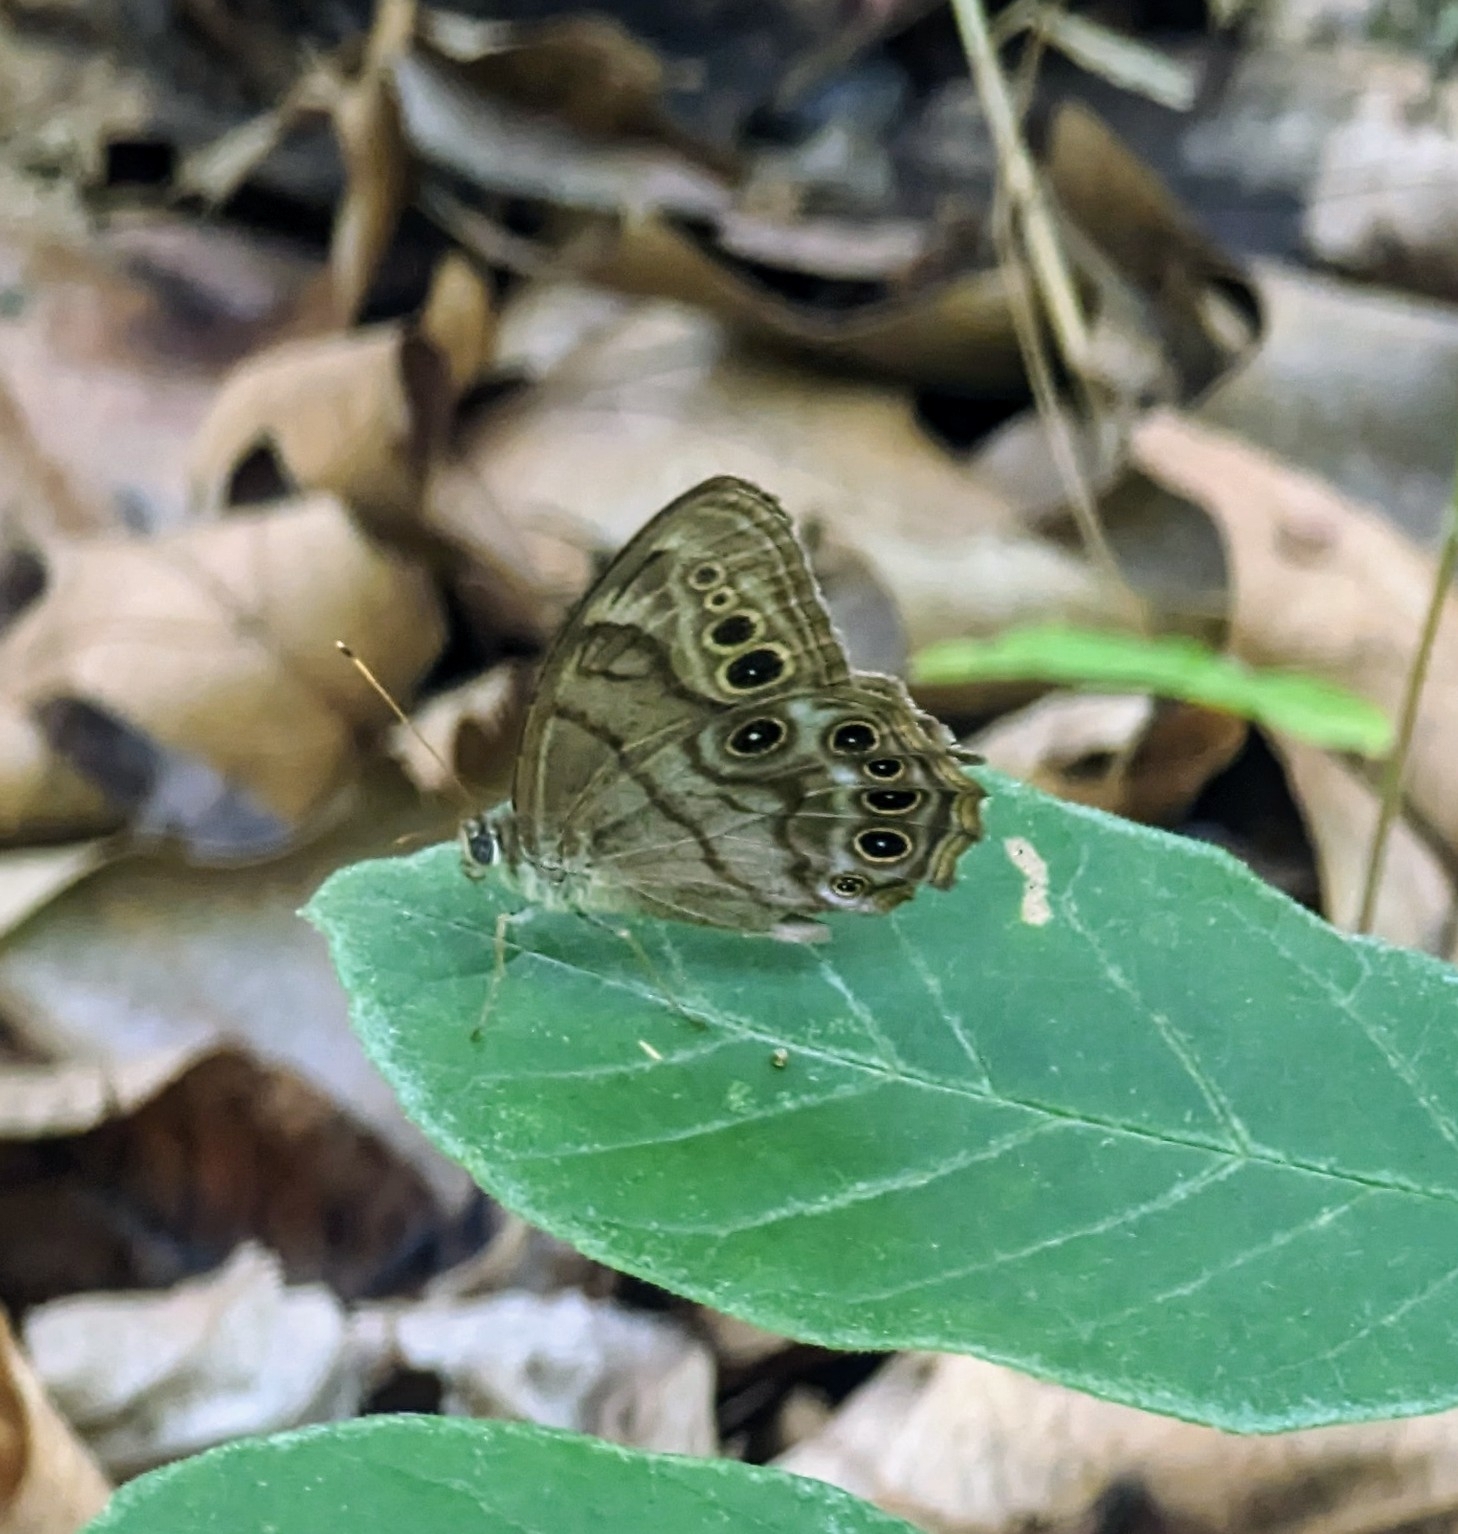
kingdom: Animalia
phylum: Arthropoda
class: Insecta
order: Lepidoptera
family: Nymphalidae
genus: Lethe
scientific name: Lethe anthedon
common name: Northern pearly-eye
